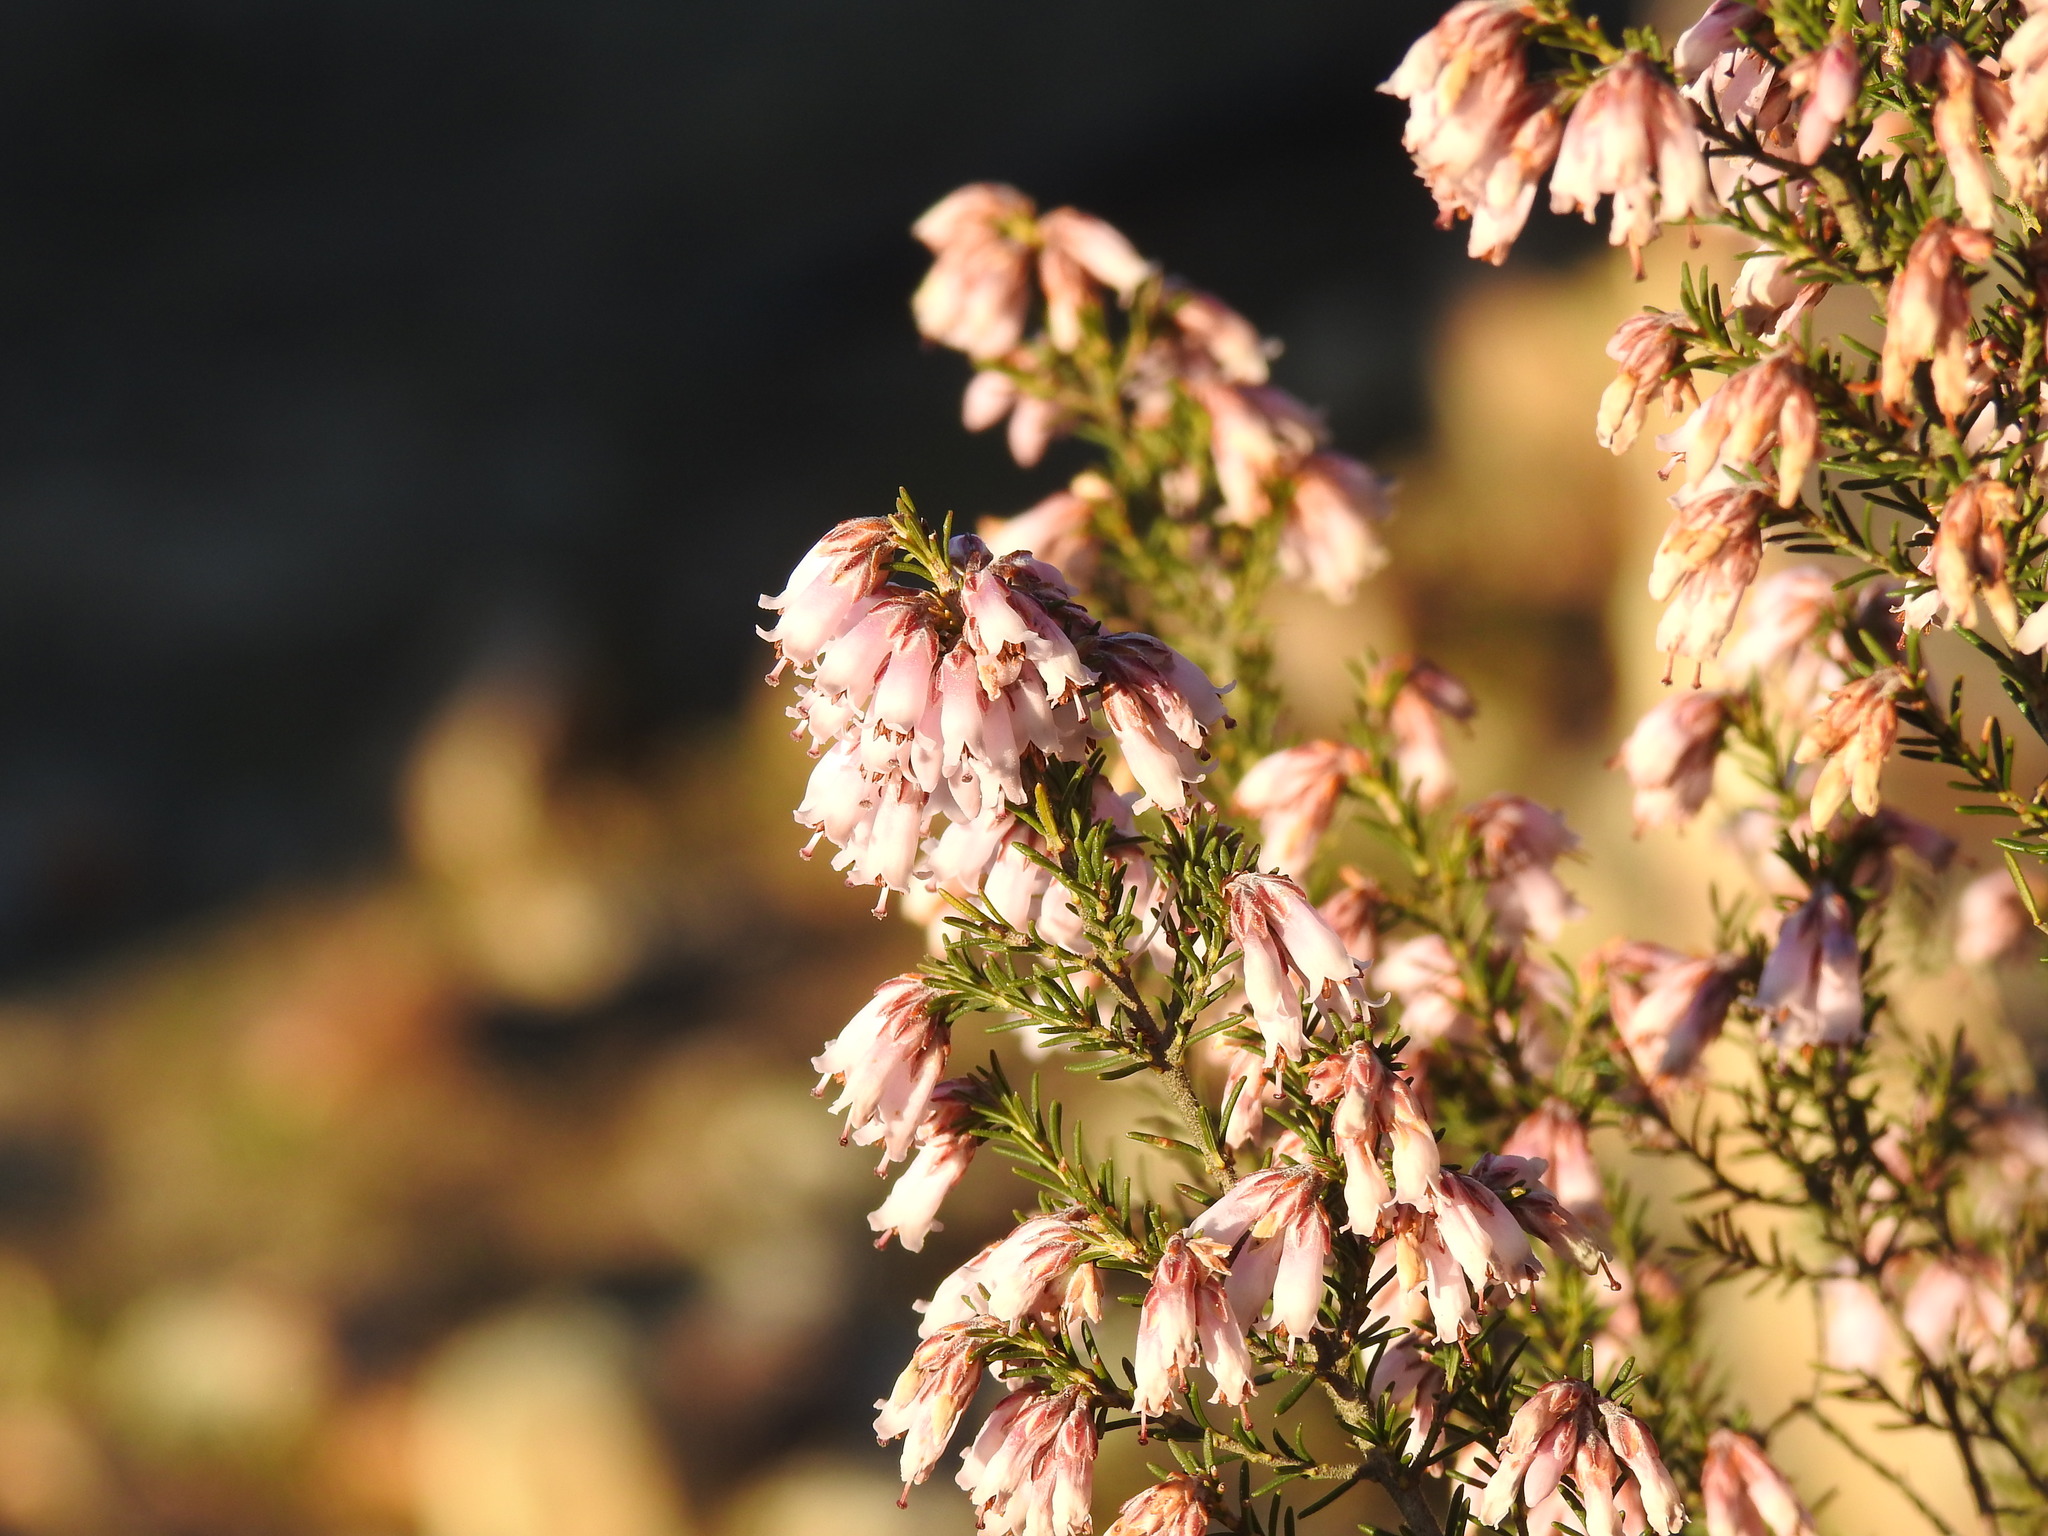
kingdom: Plantae
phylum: Tracheophyta
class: Magnoliopsida
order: Ericales
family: Ericaceae
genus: Erica
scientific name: Erica australis
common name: Spanish heath
